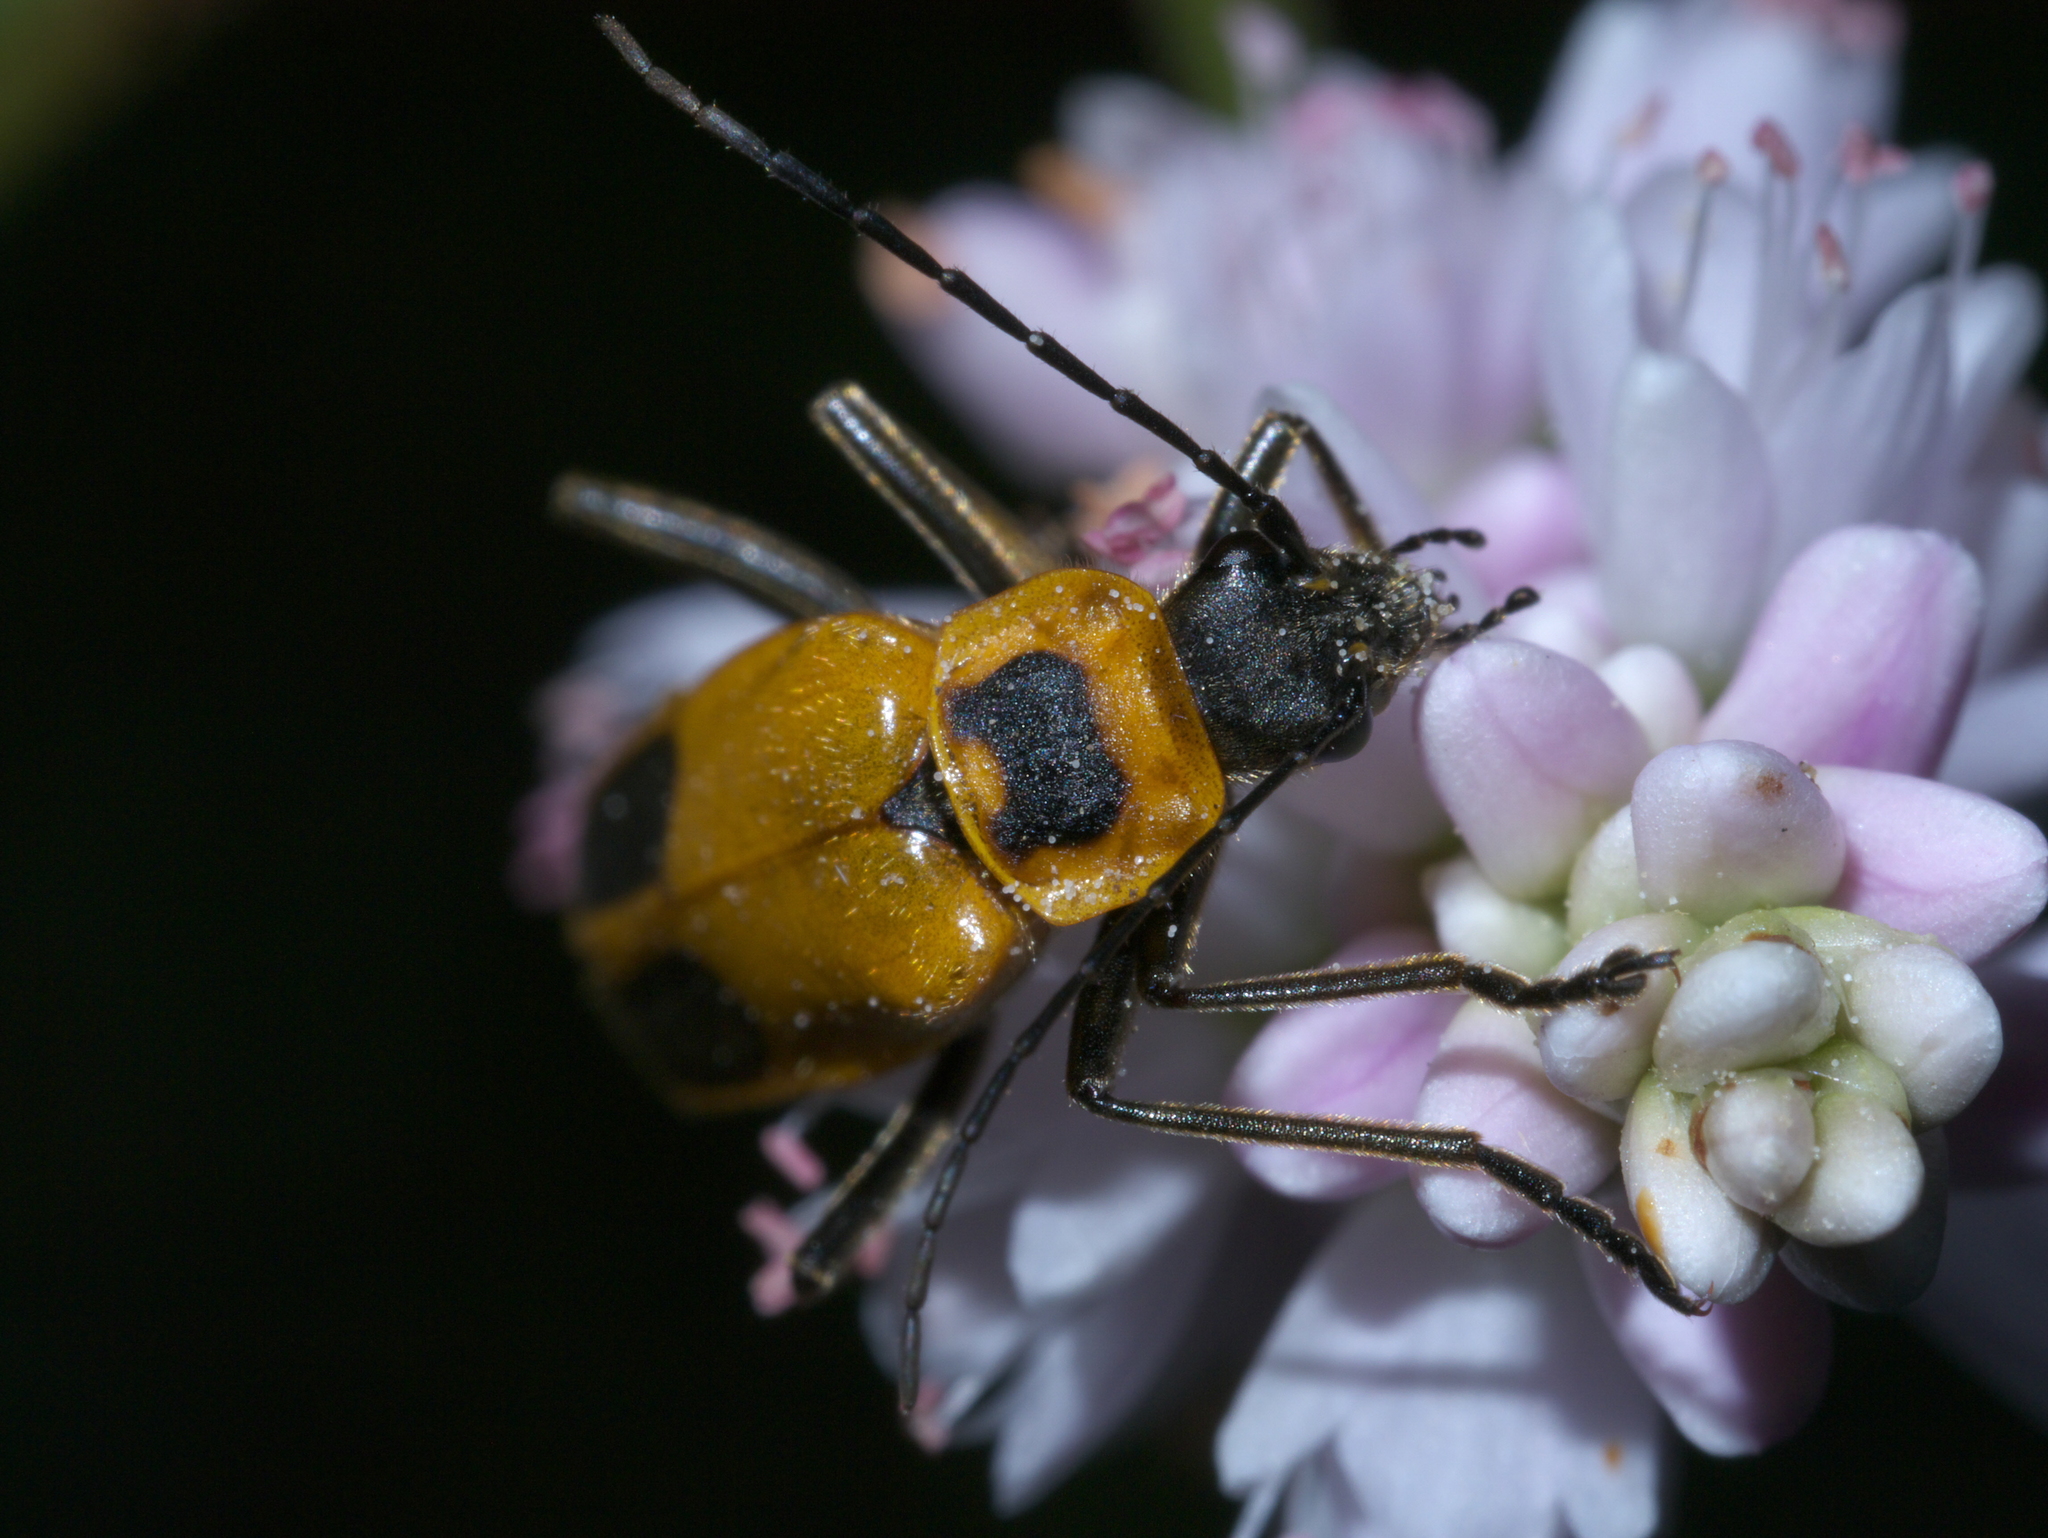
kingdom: Animalia
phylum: Arthropoda
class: Insecta
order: Coleoptera
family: Cantharidae
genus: Chauliognathus
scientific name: Chauliognathus pensylvanicus
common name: Goldenrod soldier beetle
